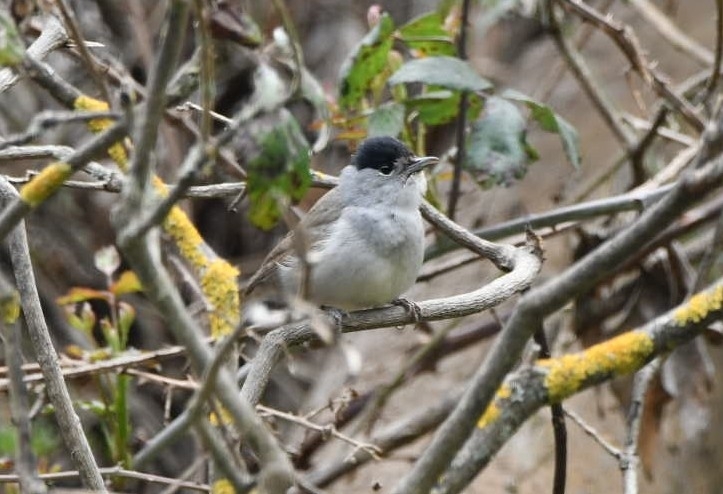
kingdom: Animalia
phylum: Chordata
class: Aves
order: Passeriformes
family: Sylviidae
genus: Sylvia
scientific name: Sylvia atricapilla
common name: Eurasian blackcap
